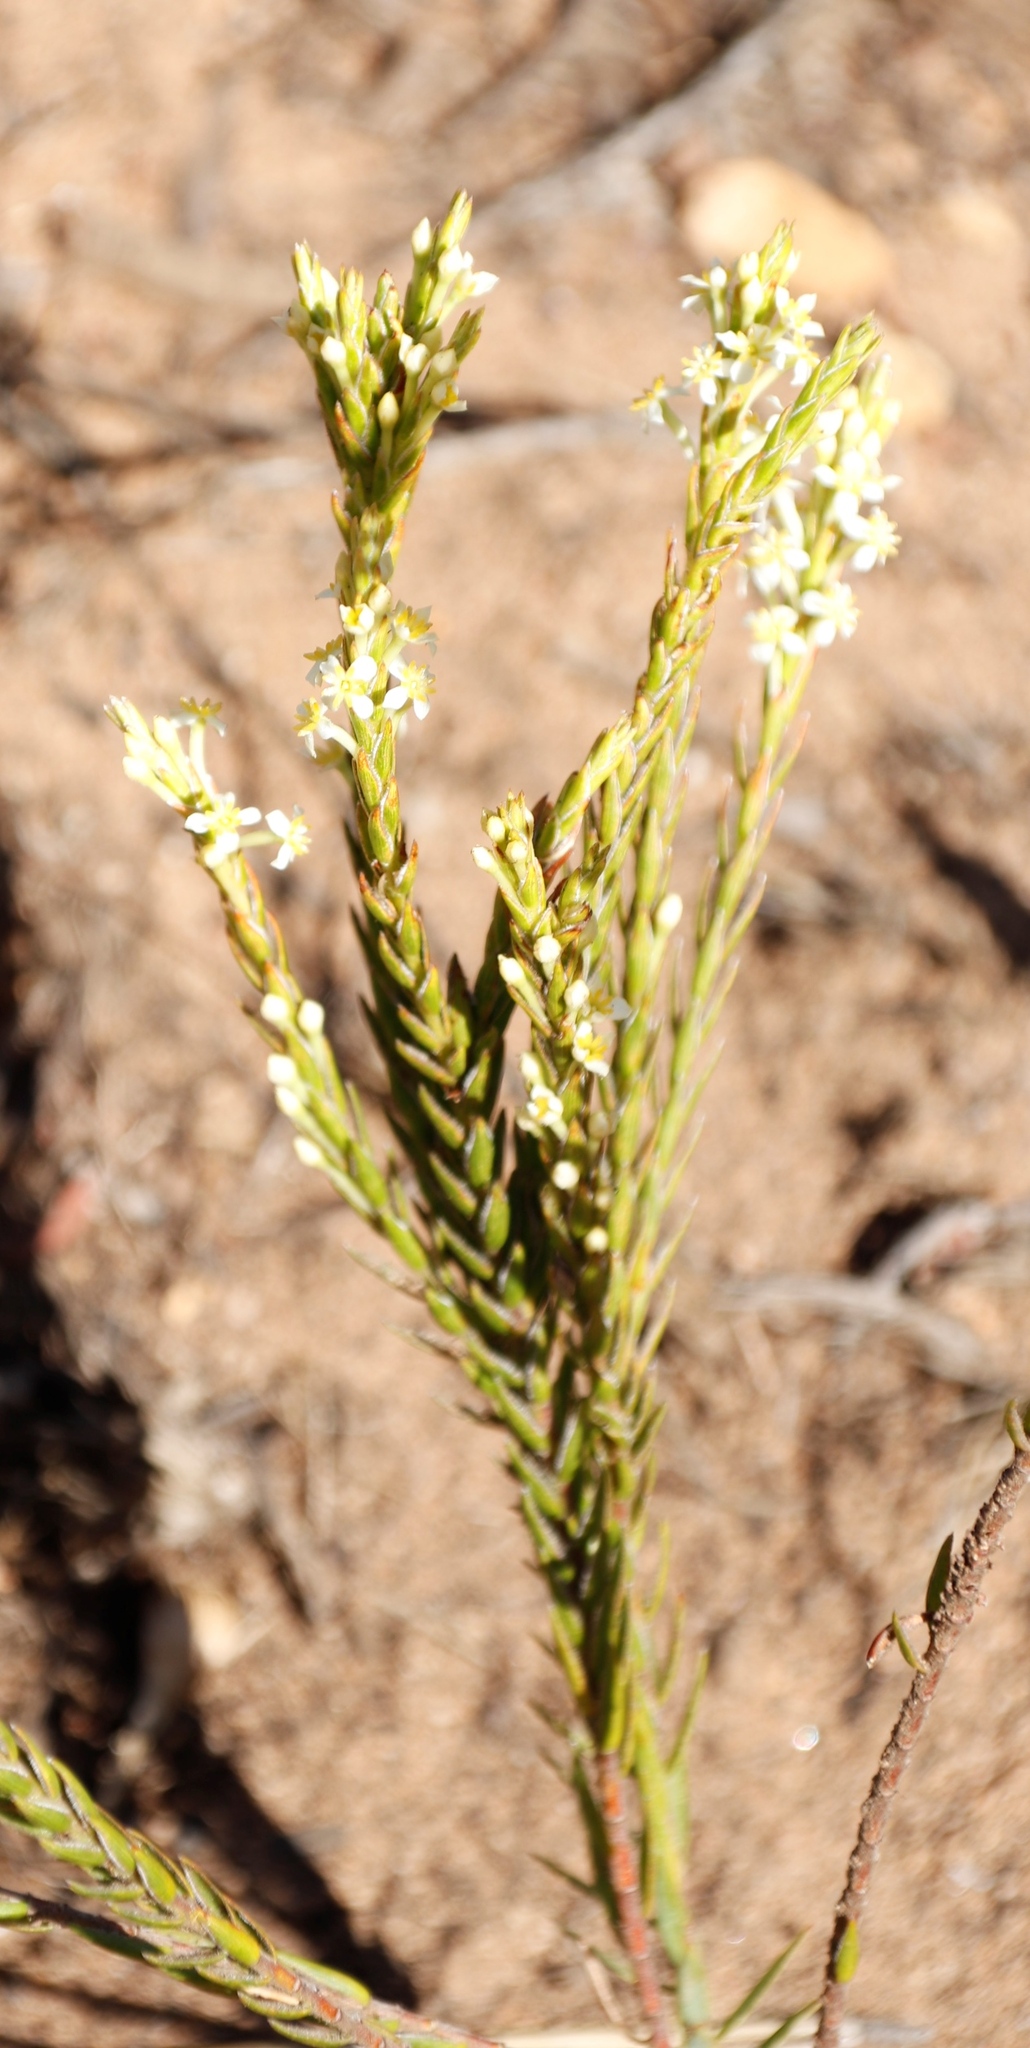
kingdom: Plantae
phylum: Tracheophyta
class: Magnoliopsida
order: Malvales
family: Thymelaeaceae
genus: Struthiola
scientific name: Struthiola ciliata
